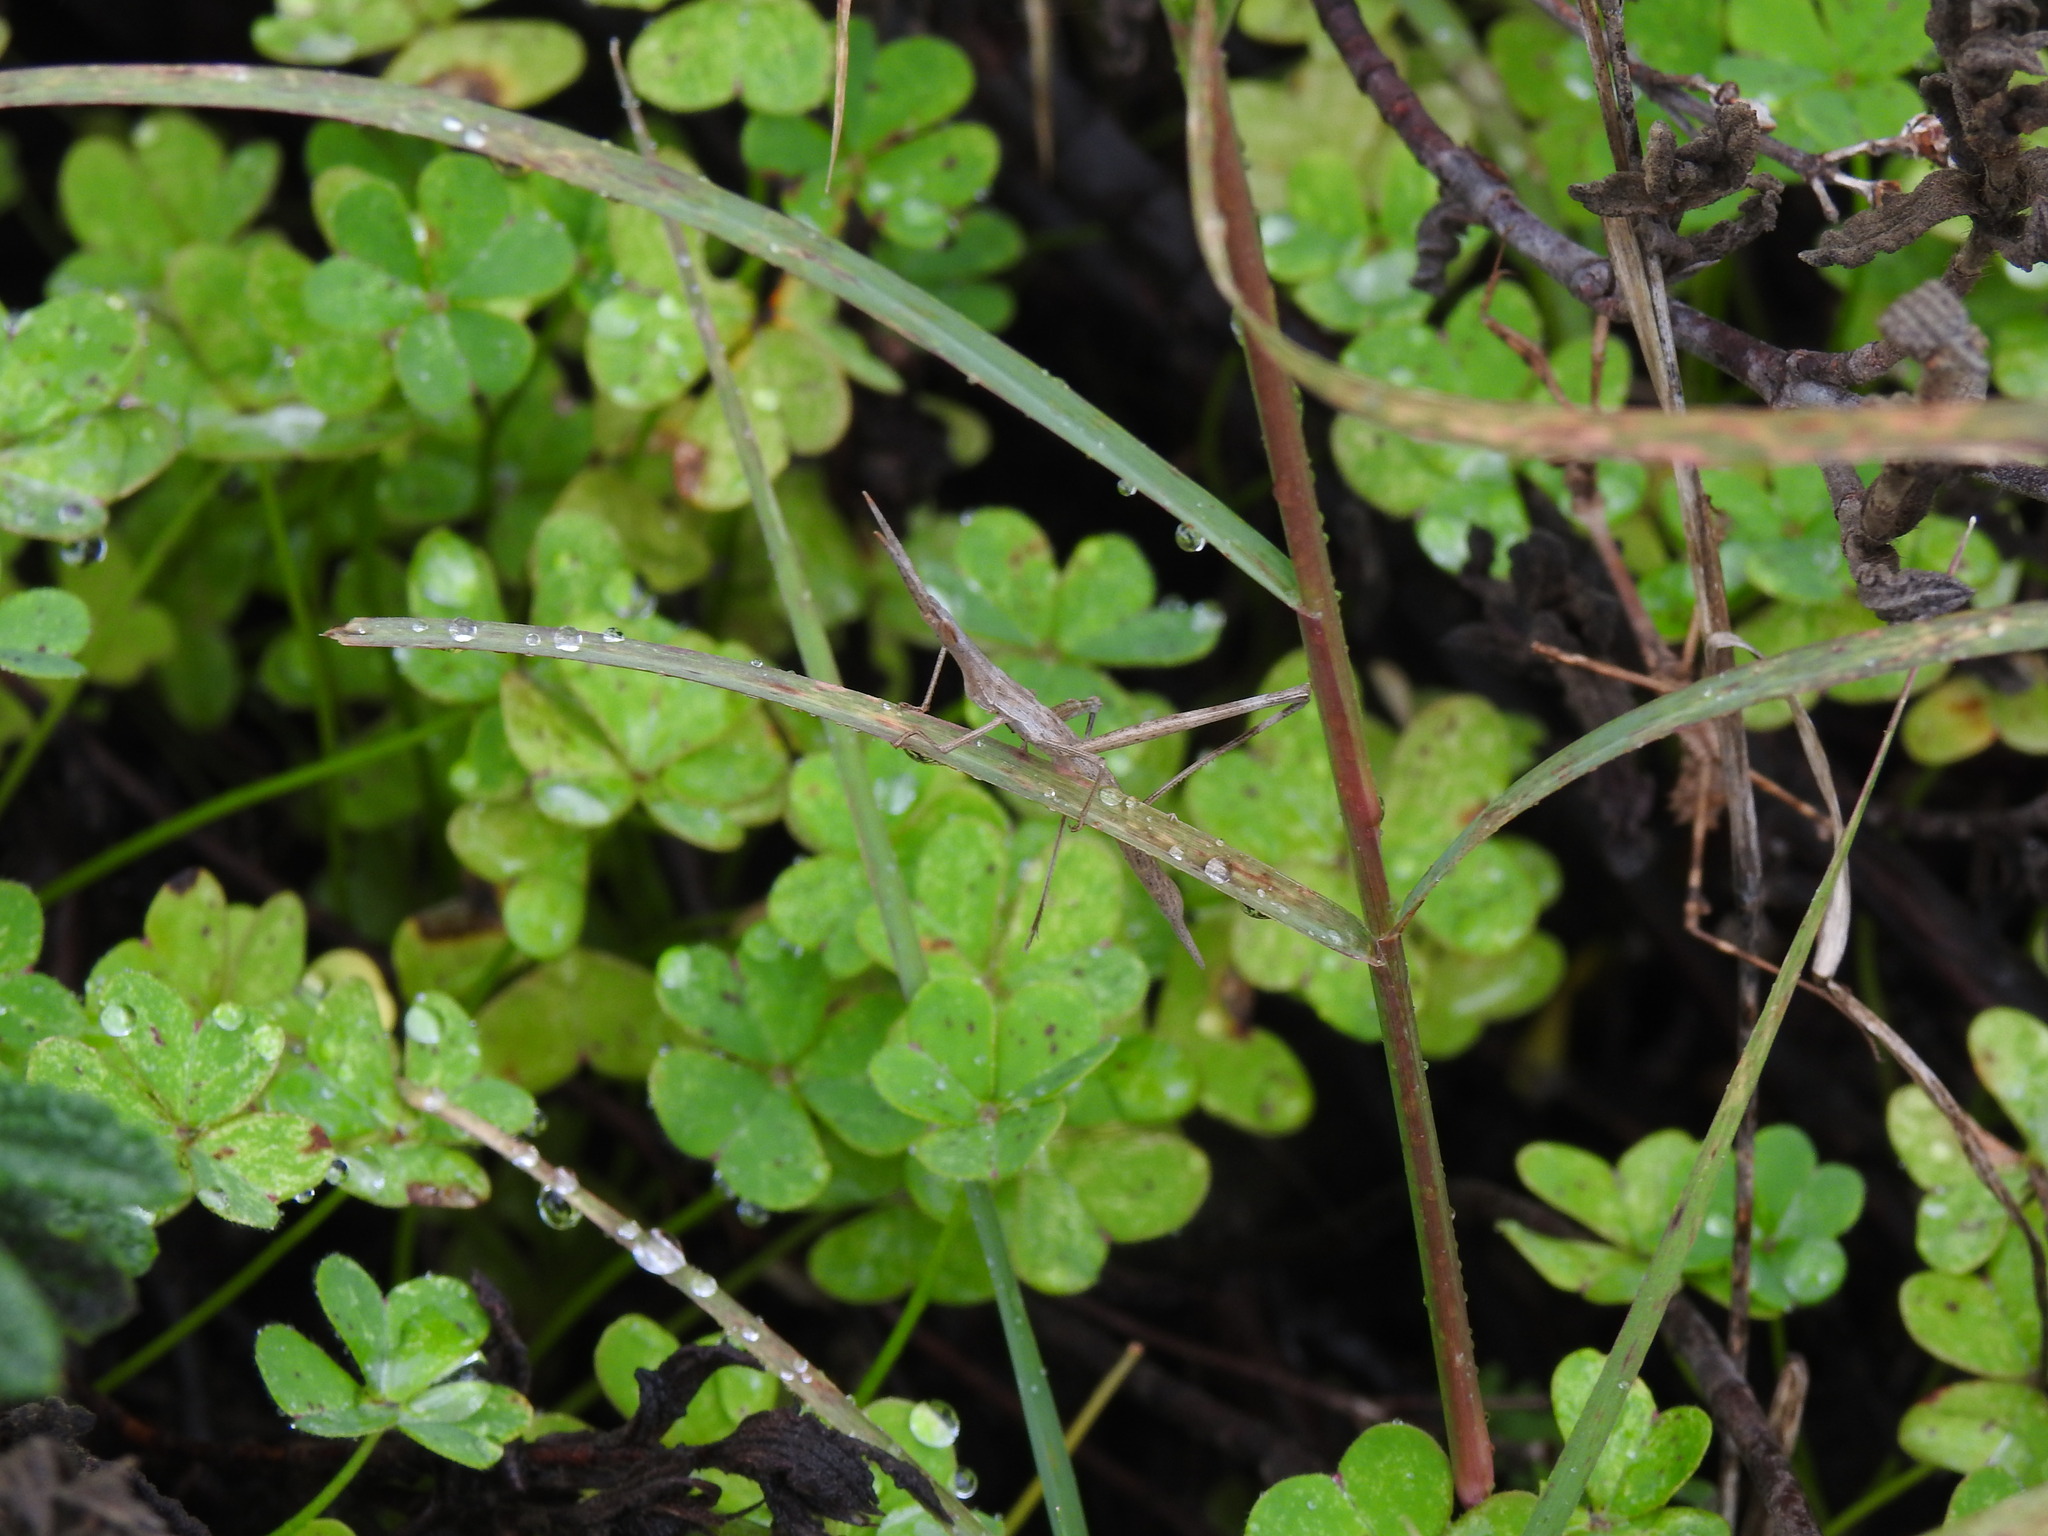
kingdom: Animalia
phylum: Arthropoda
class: Insecta
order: Orthoptera
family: Acrididae
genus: Truxalis
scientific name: Truxalis nasuta
